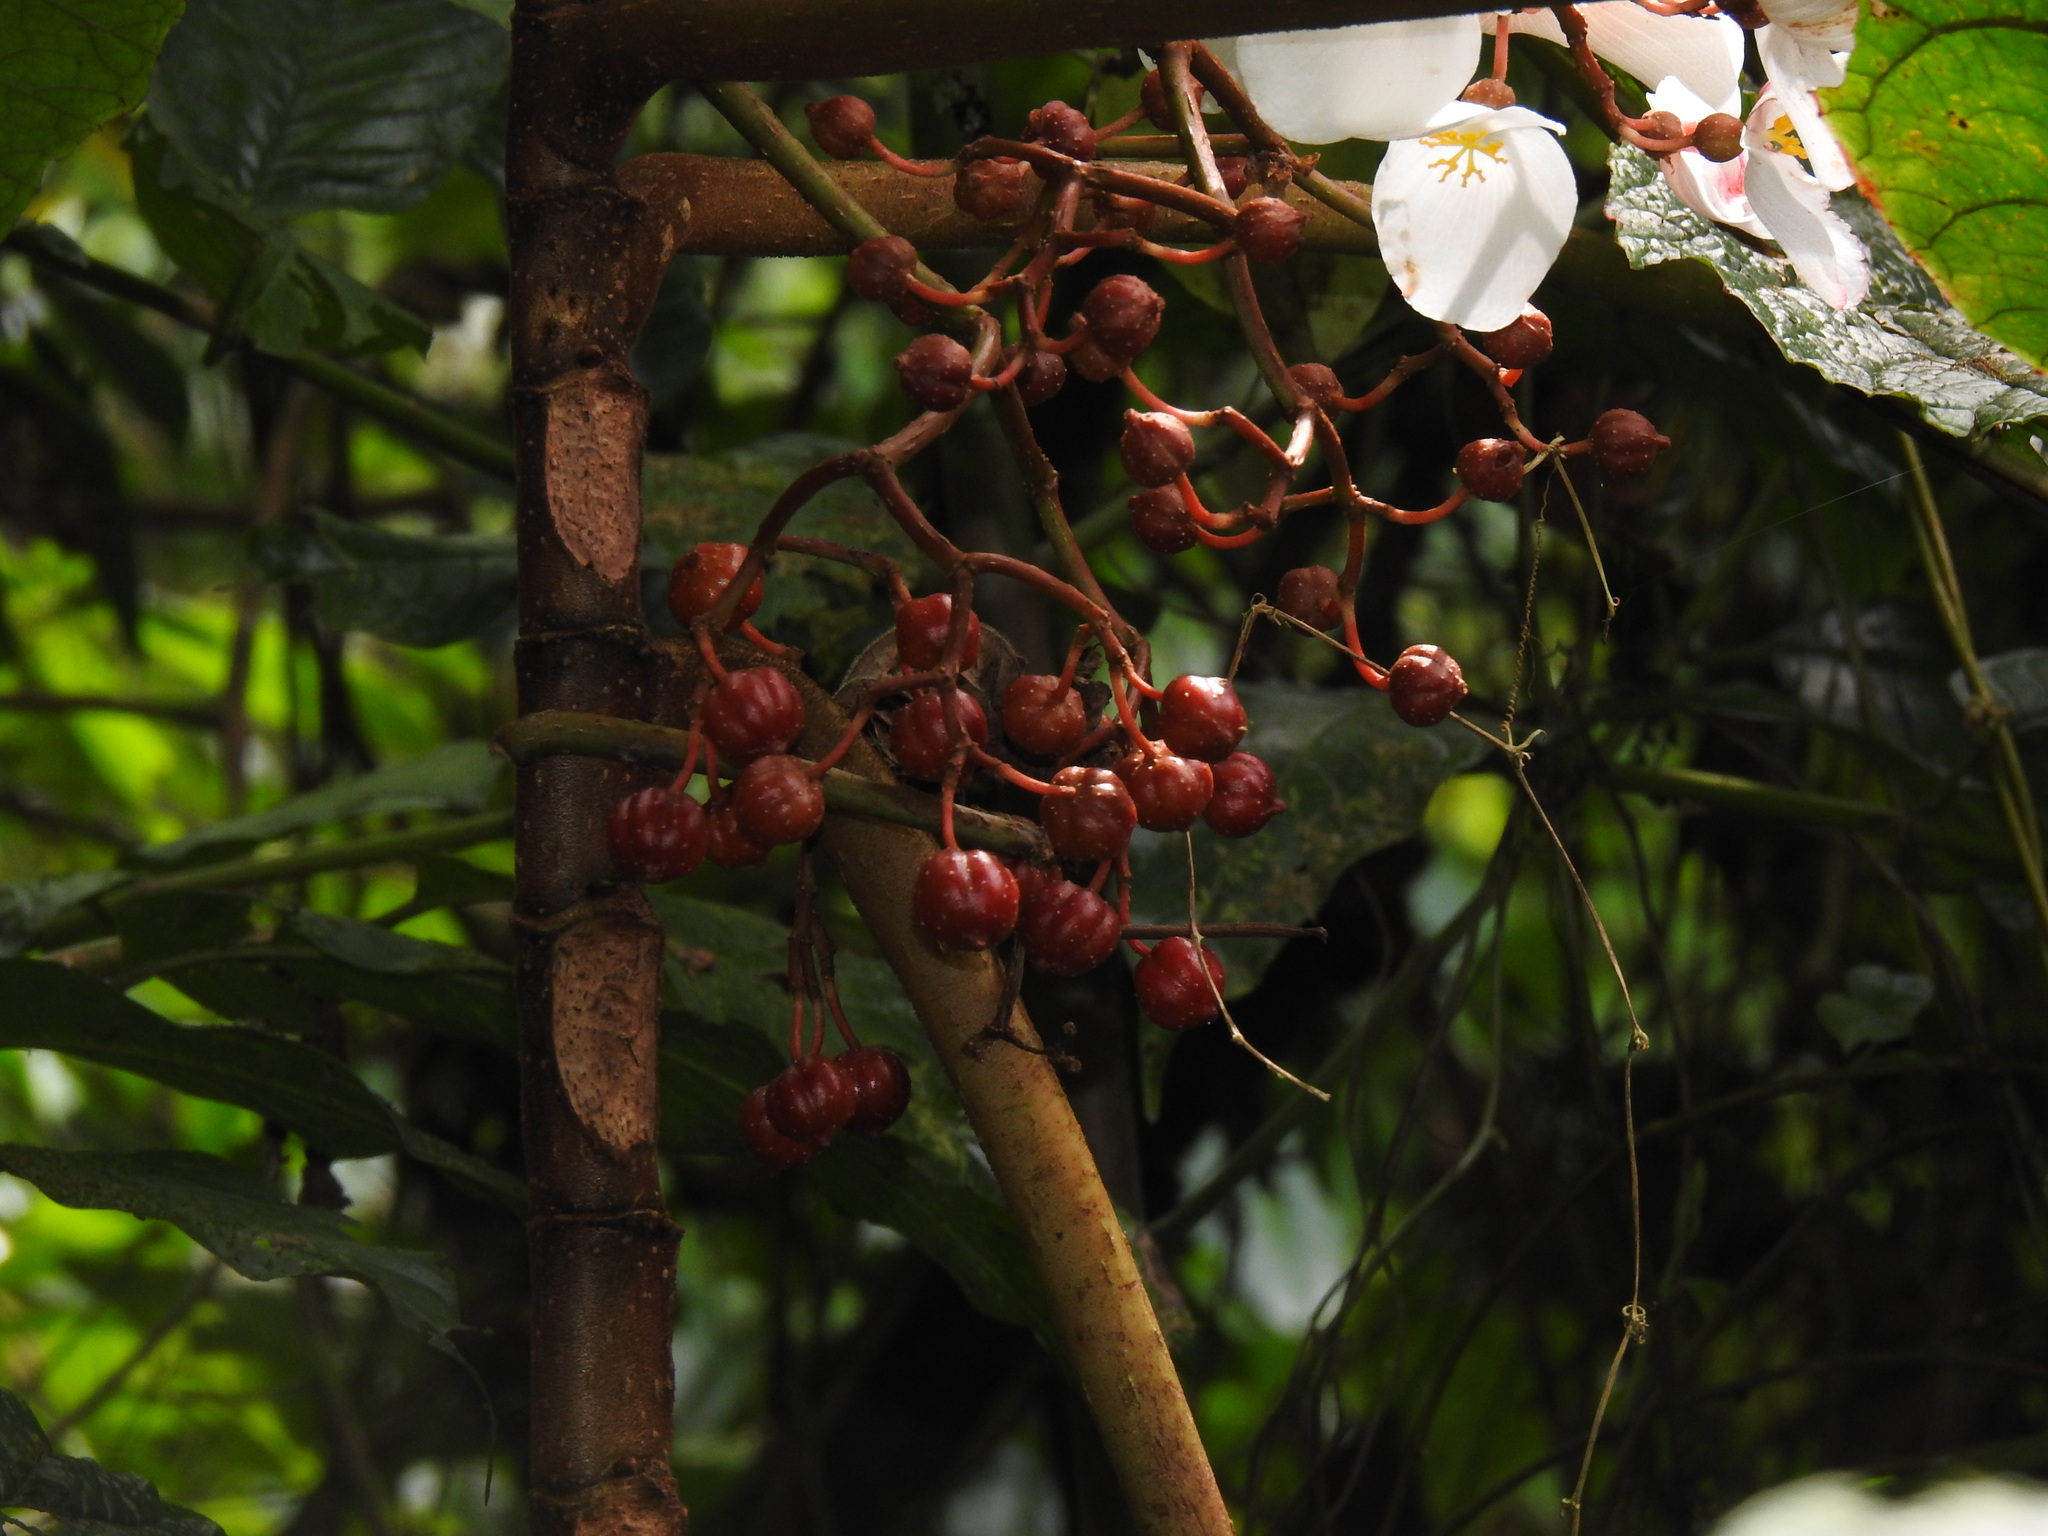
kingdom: Plantae
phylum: Tracheophyta
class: Magnoliopsida
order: Cucurbitales
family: Begoniaceae
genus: Begonia
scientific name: Begonia baccata
